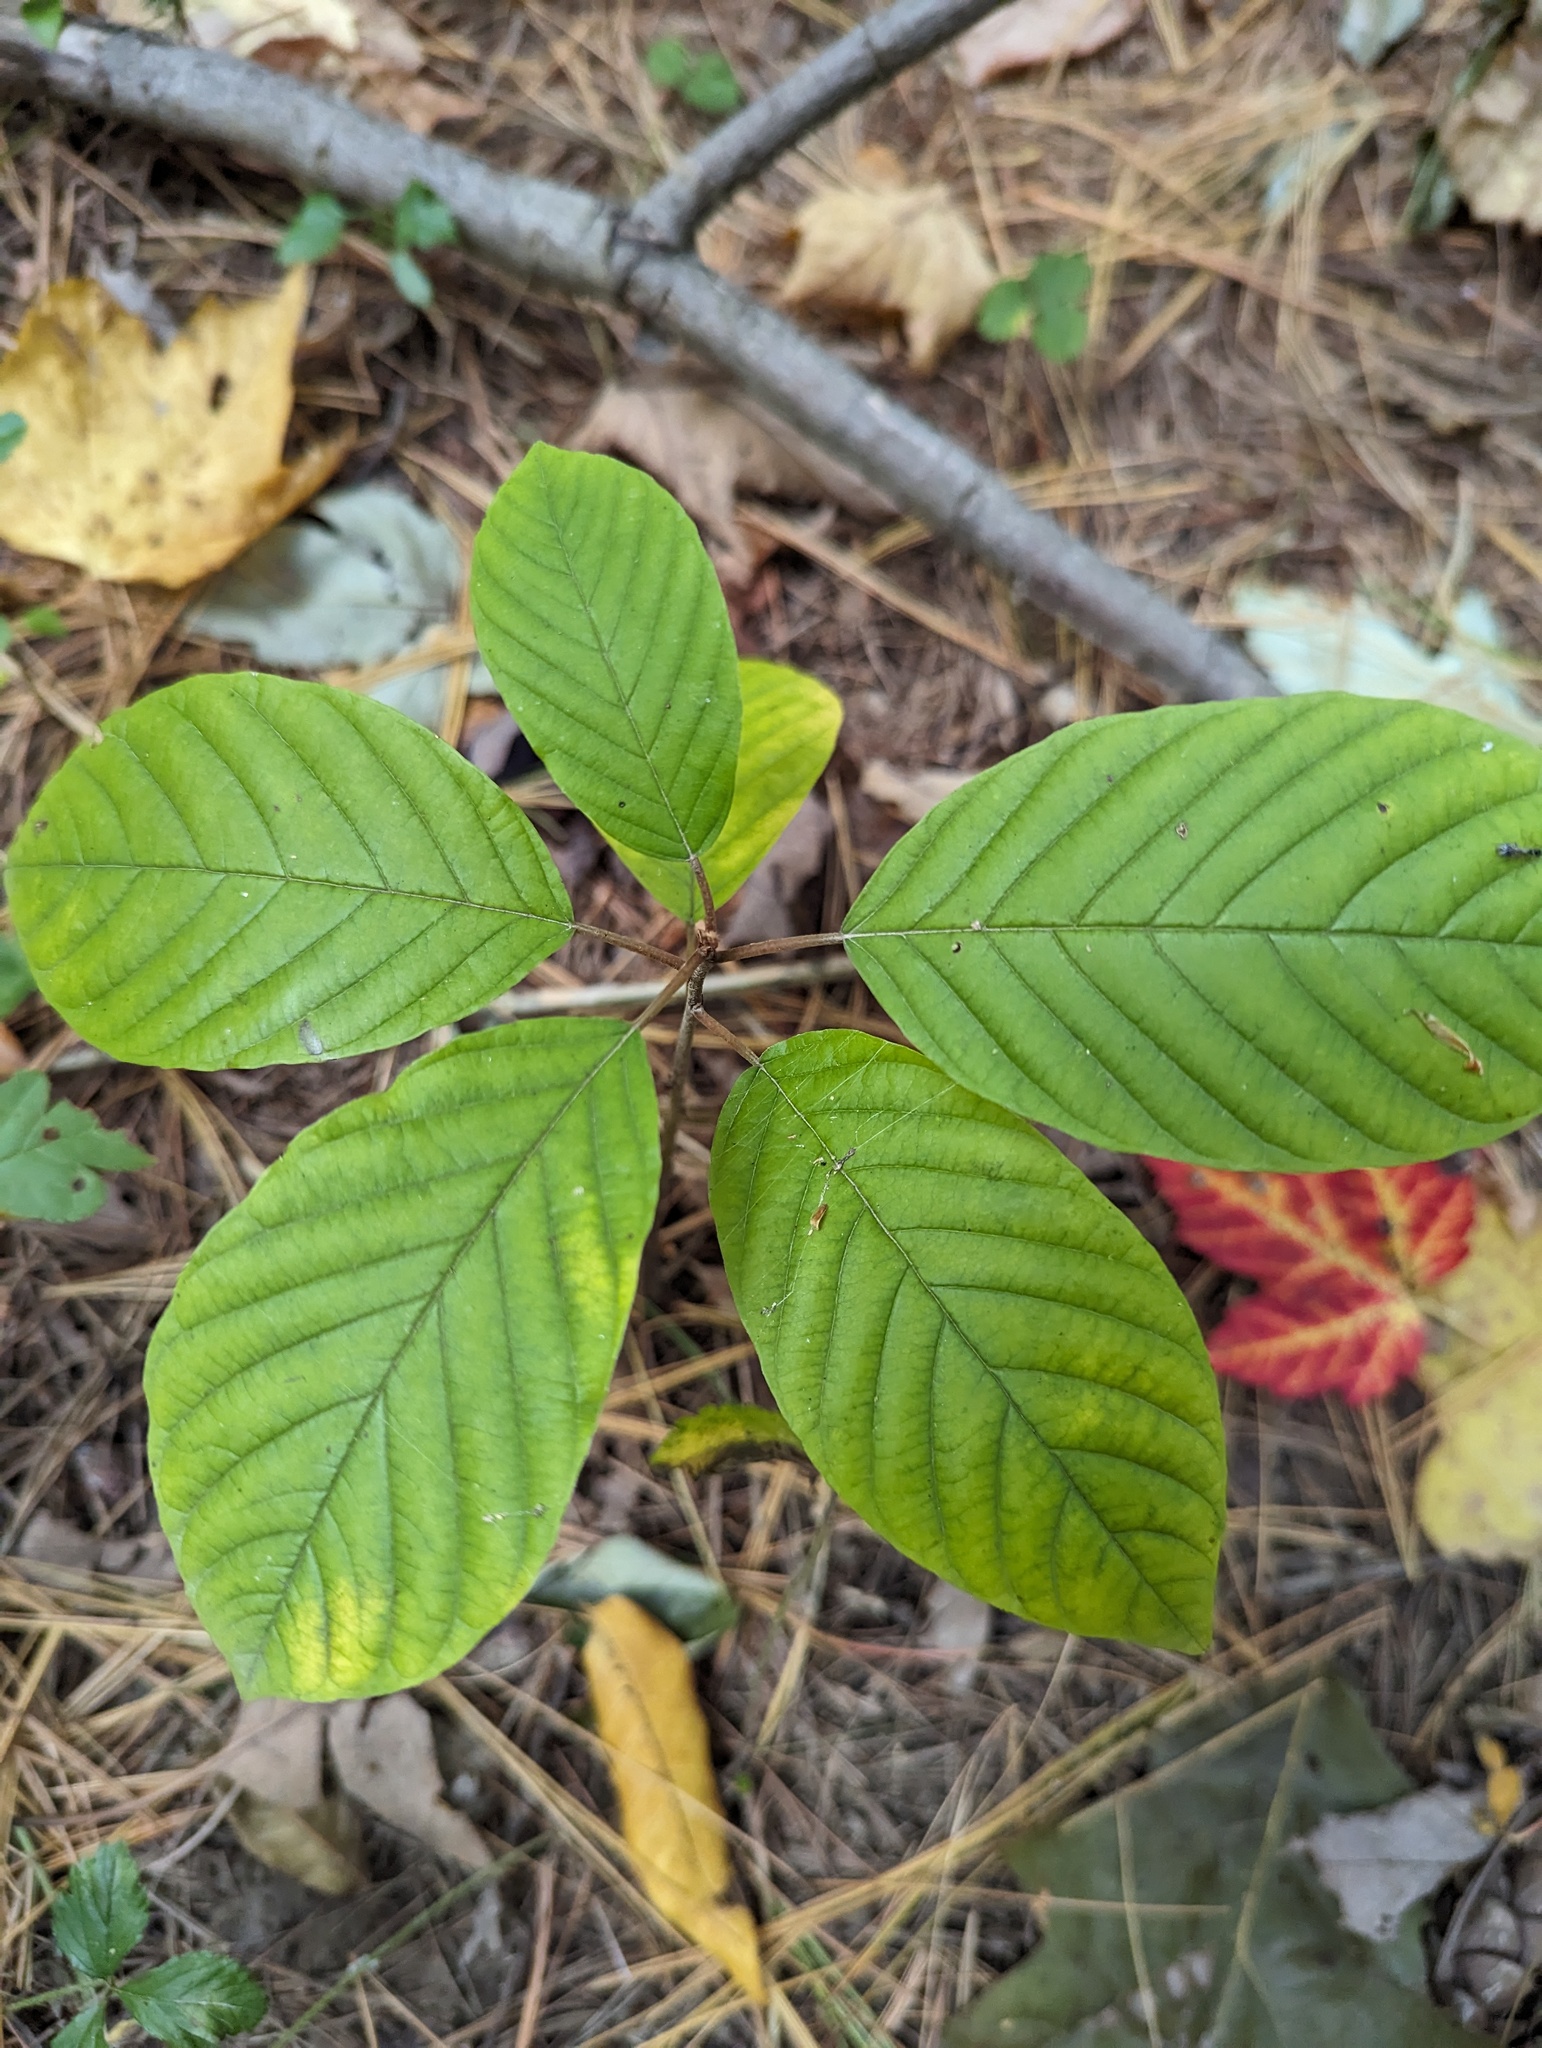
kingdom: Plantae
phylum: Tracheophyta
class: Magnoliopsida
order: Rosales
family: Rhamnaceae
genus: Frangula
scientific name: Frangula alnus
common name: Alder buckthorn
